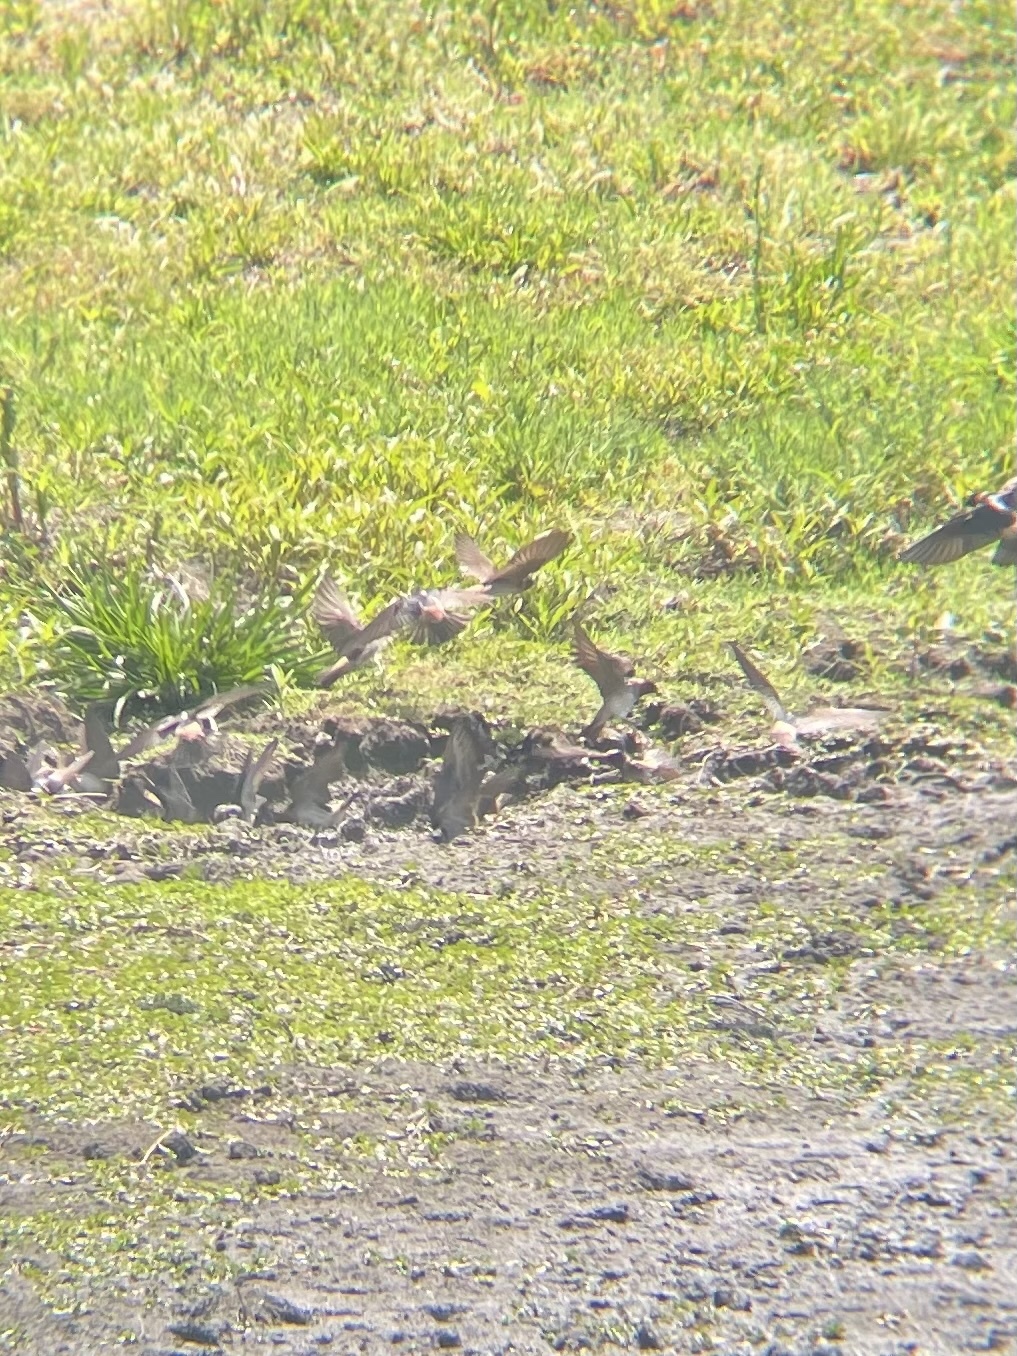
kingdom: Animalia
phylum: Chordata
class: Aves
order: Passeriformes
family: Hirundinidae
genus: Petrochelidon
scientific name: Petrochelidon pyrrhonota
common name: American cliff swallow
